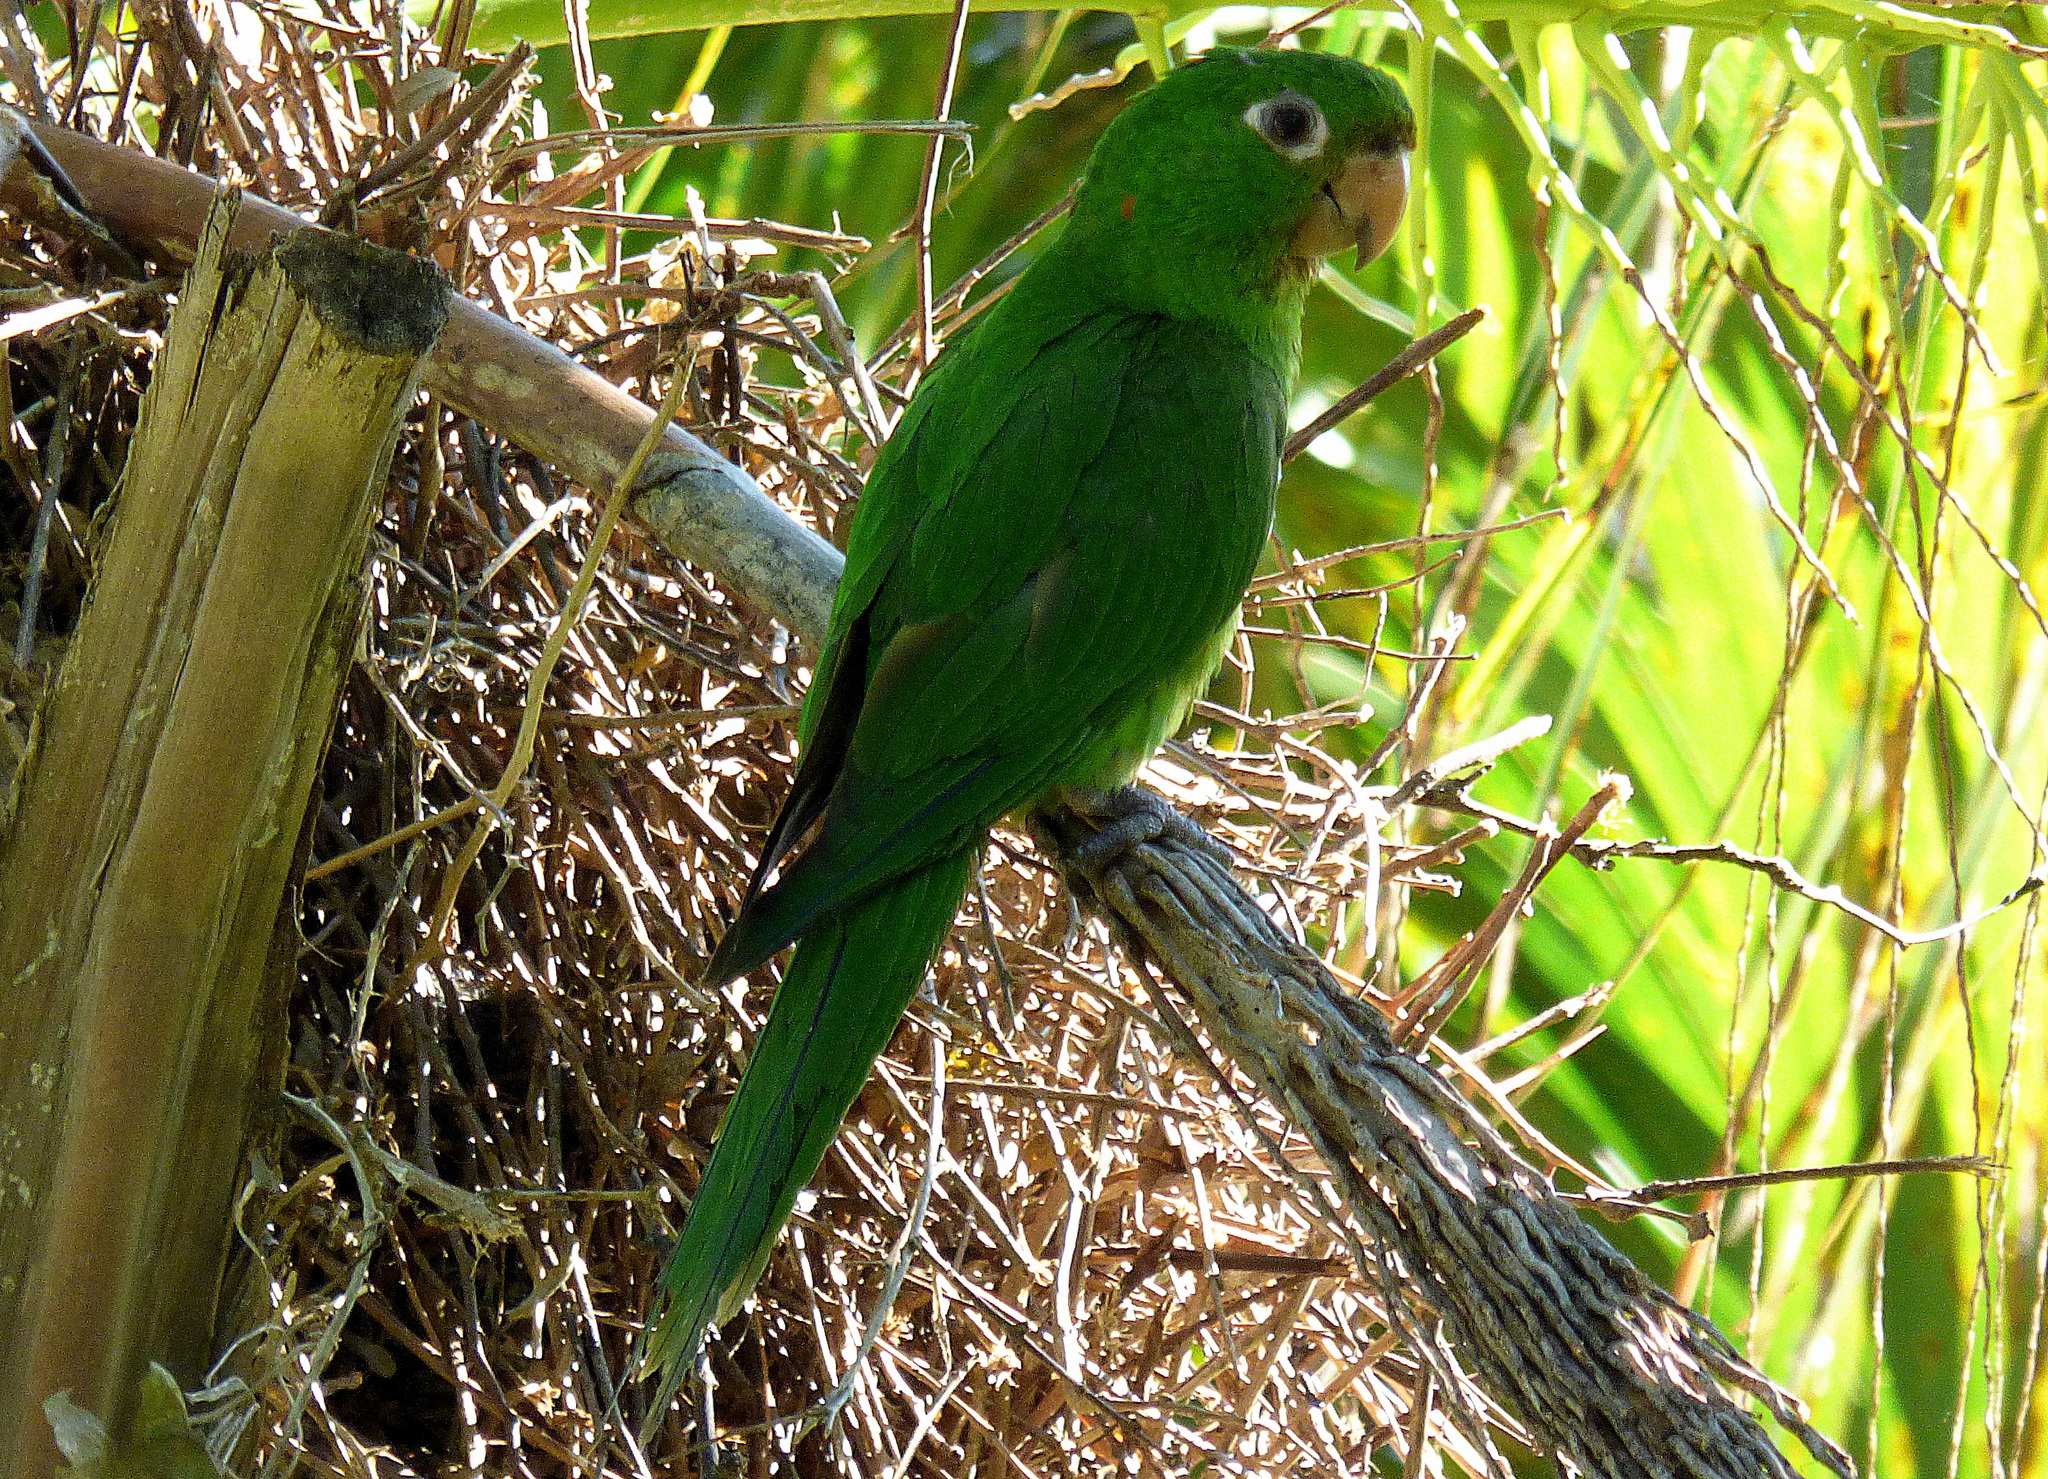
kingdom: Animalia
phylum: Chordata
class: Aves
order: Psittaciformes
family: Psittacidae
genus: Aratinga
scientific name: Aratinga leucophthalma
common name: White-eyed parakeet
